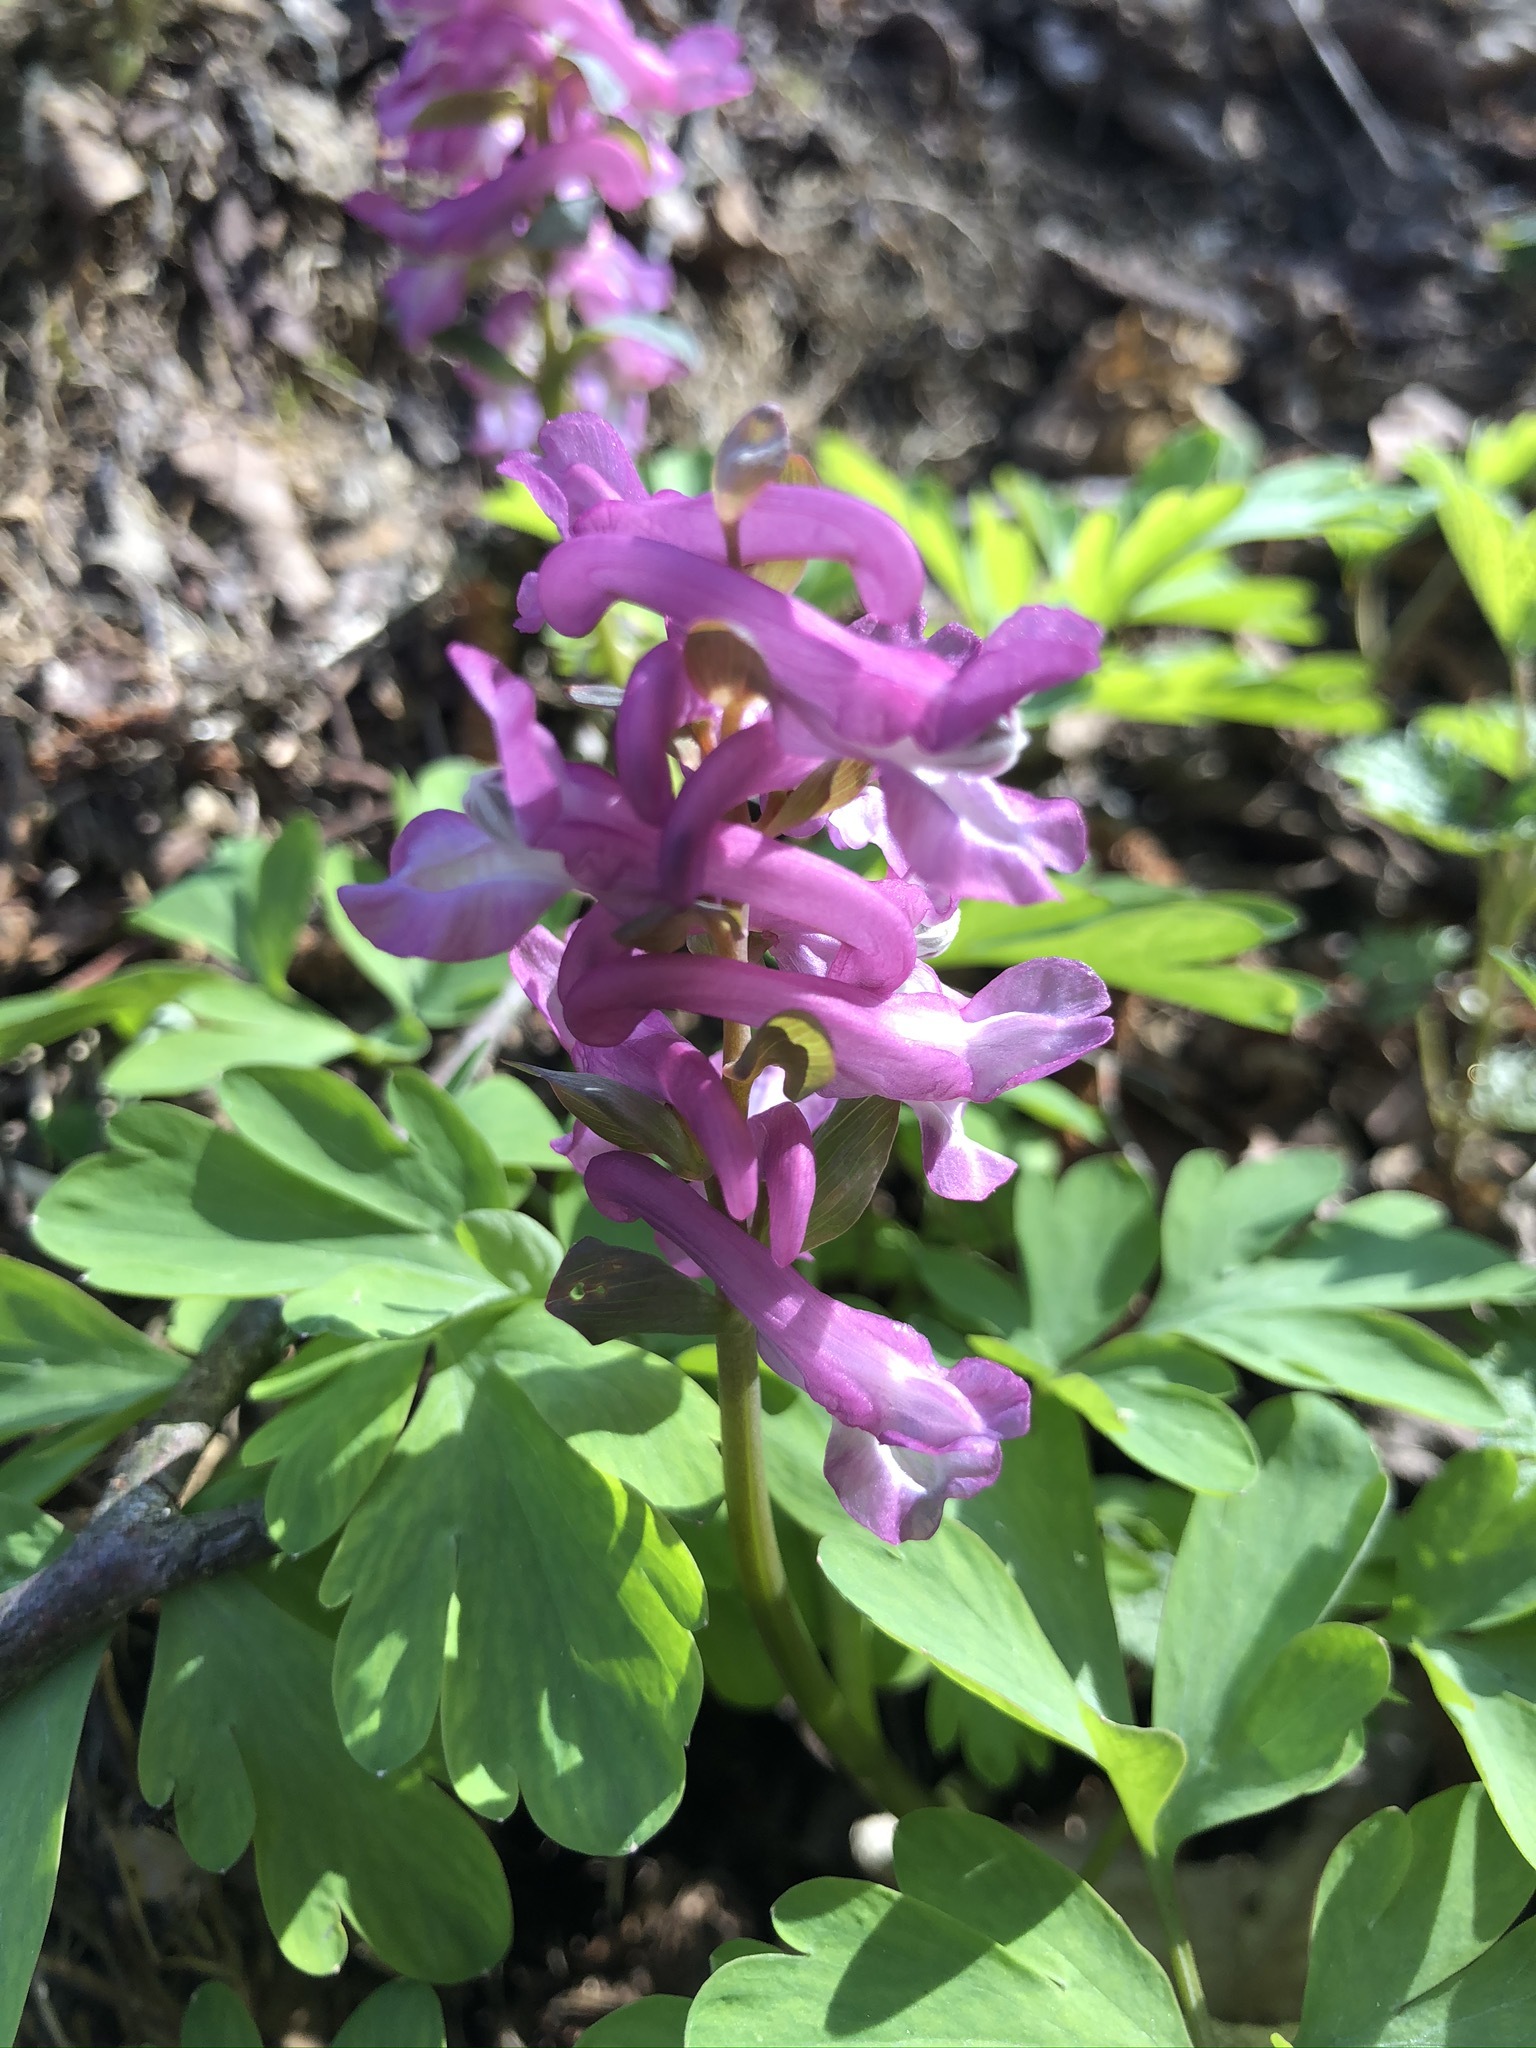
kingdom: Plantae
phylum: Tracheophyta
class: Magnoliopsida
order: Ranunculales
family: Papaveraceae
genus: Corydalis
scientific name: Corydalis cava
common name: Hollowroot
